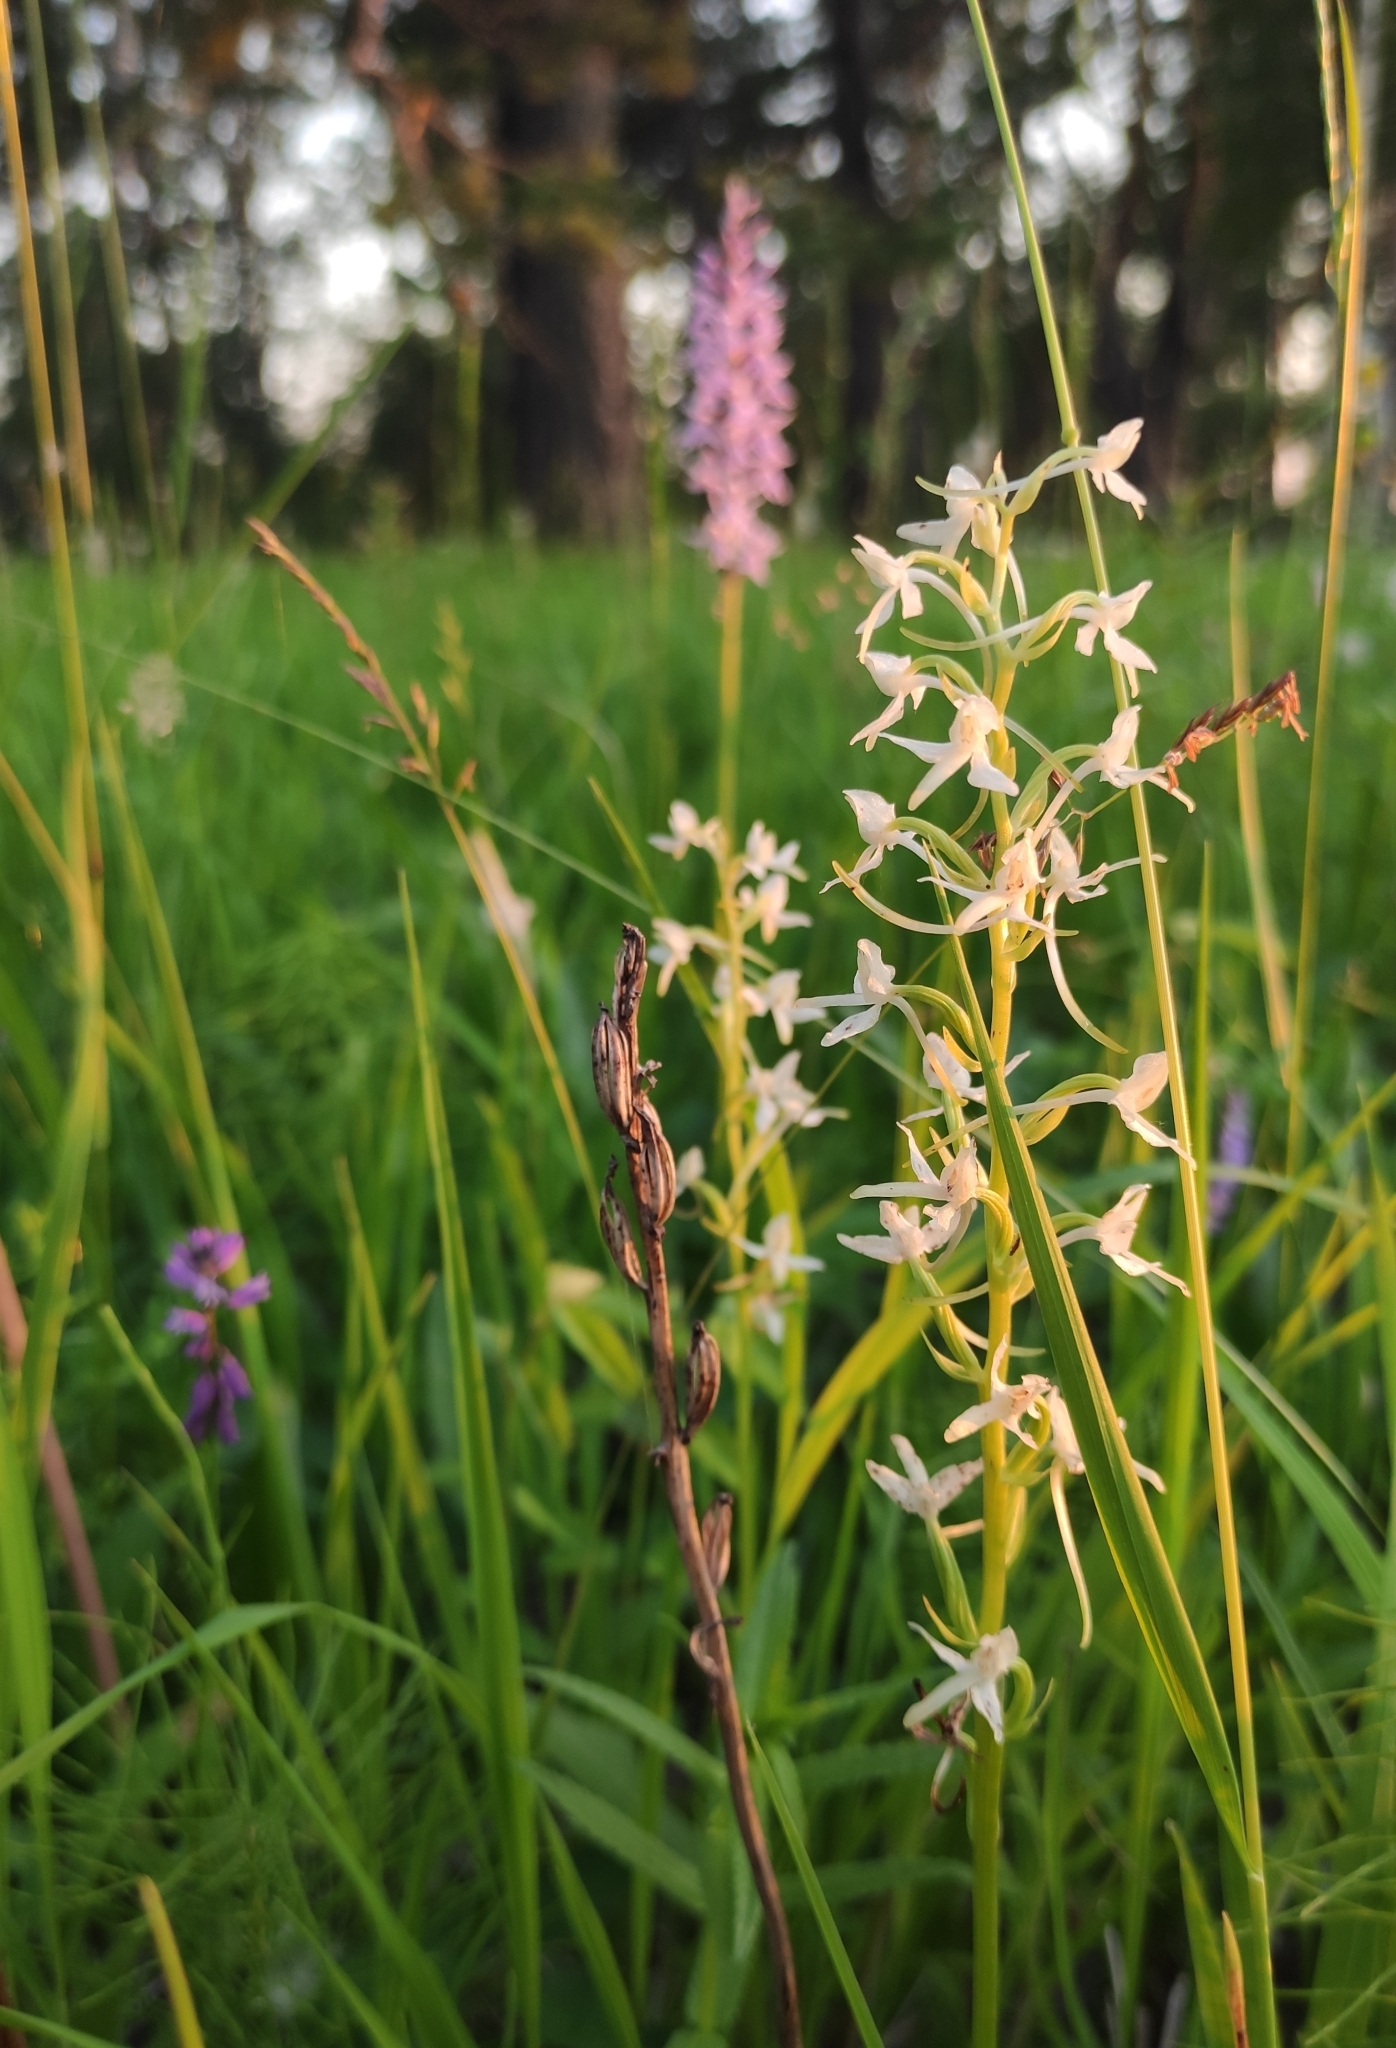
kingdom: Plantae
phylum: Tracheophyta
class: Liliopsida
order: Asparagales
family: Orchidaceae
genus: Platanthera
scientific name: Platanthera bifolia
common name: Lesser butterfly-orchid
